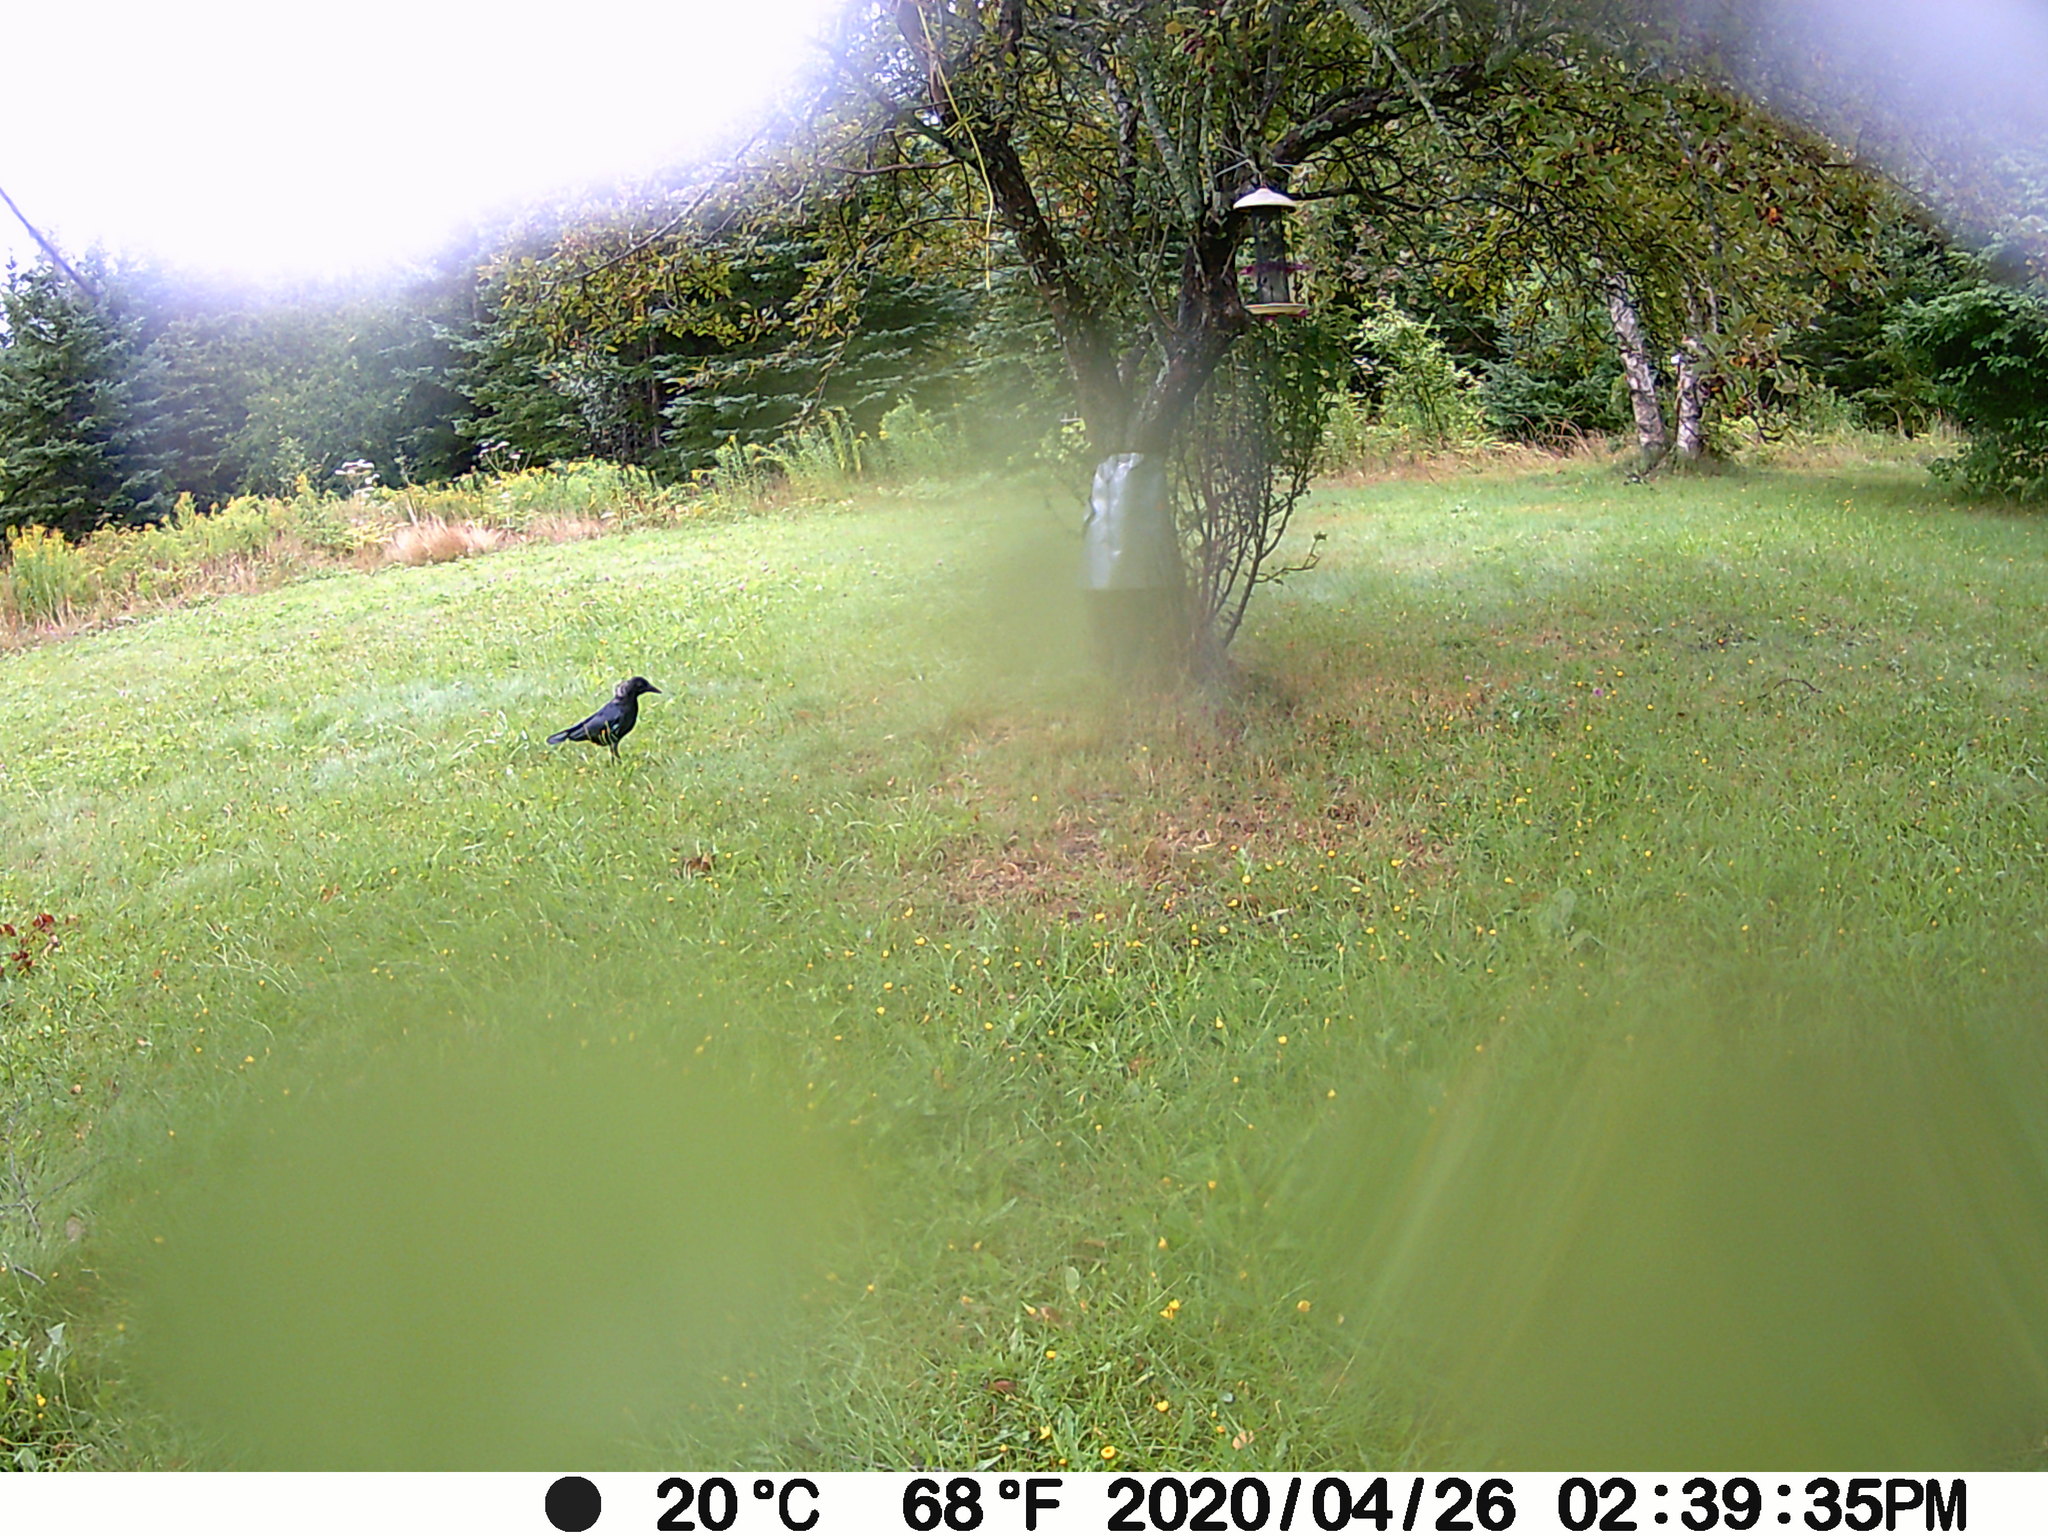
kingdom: Animalia
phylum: Chordata
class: Aves
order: Passeriformes
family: Corvidae
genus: Corvus
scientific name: Corvus brachyrhynchos
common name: American crow
